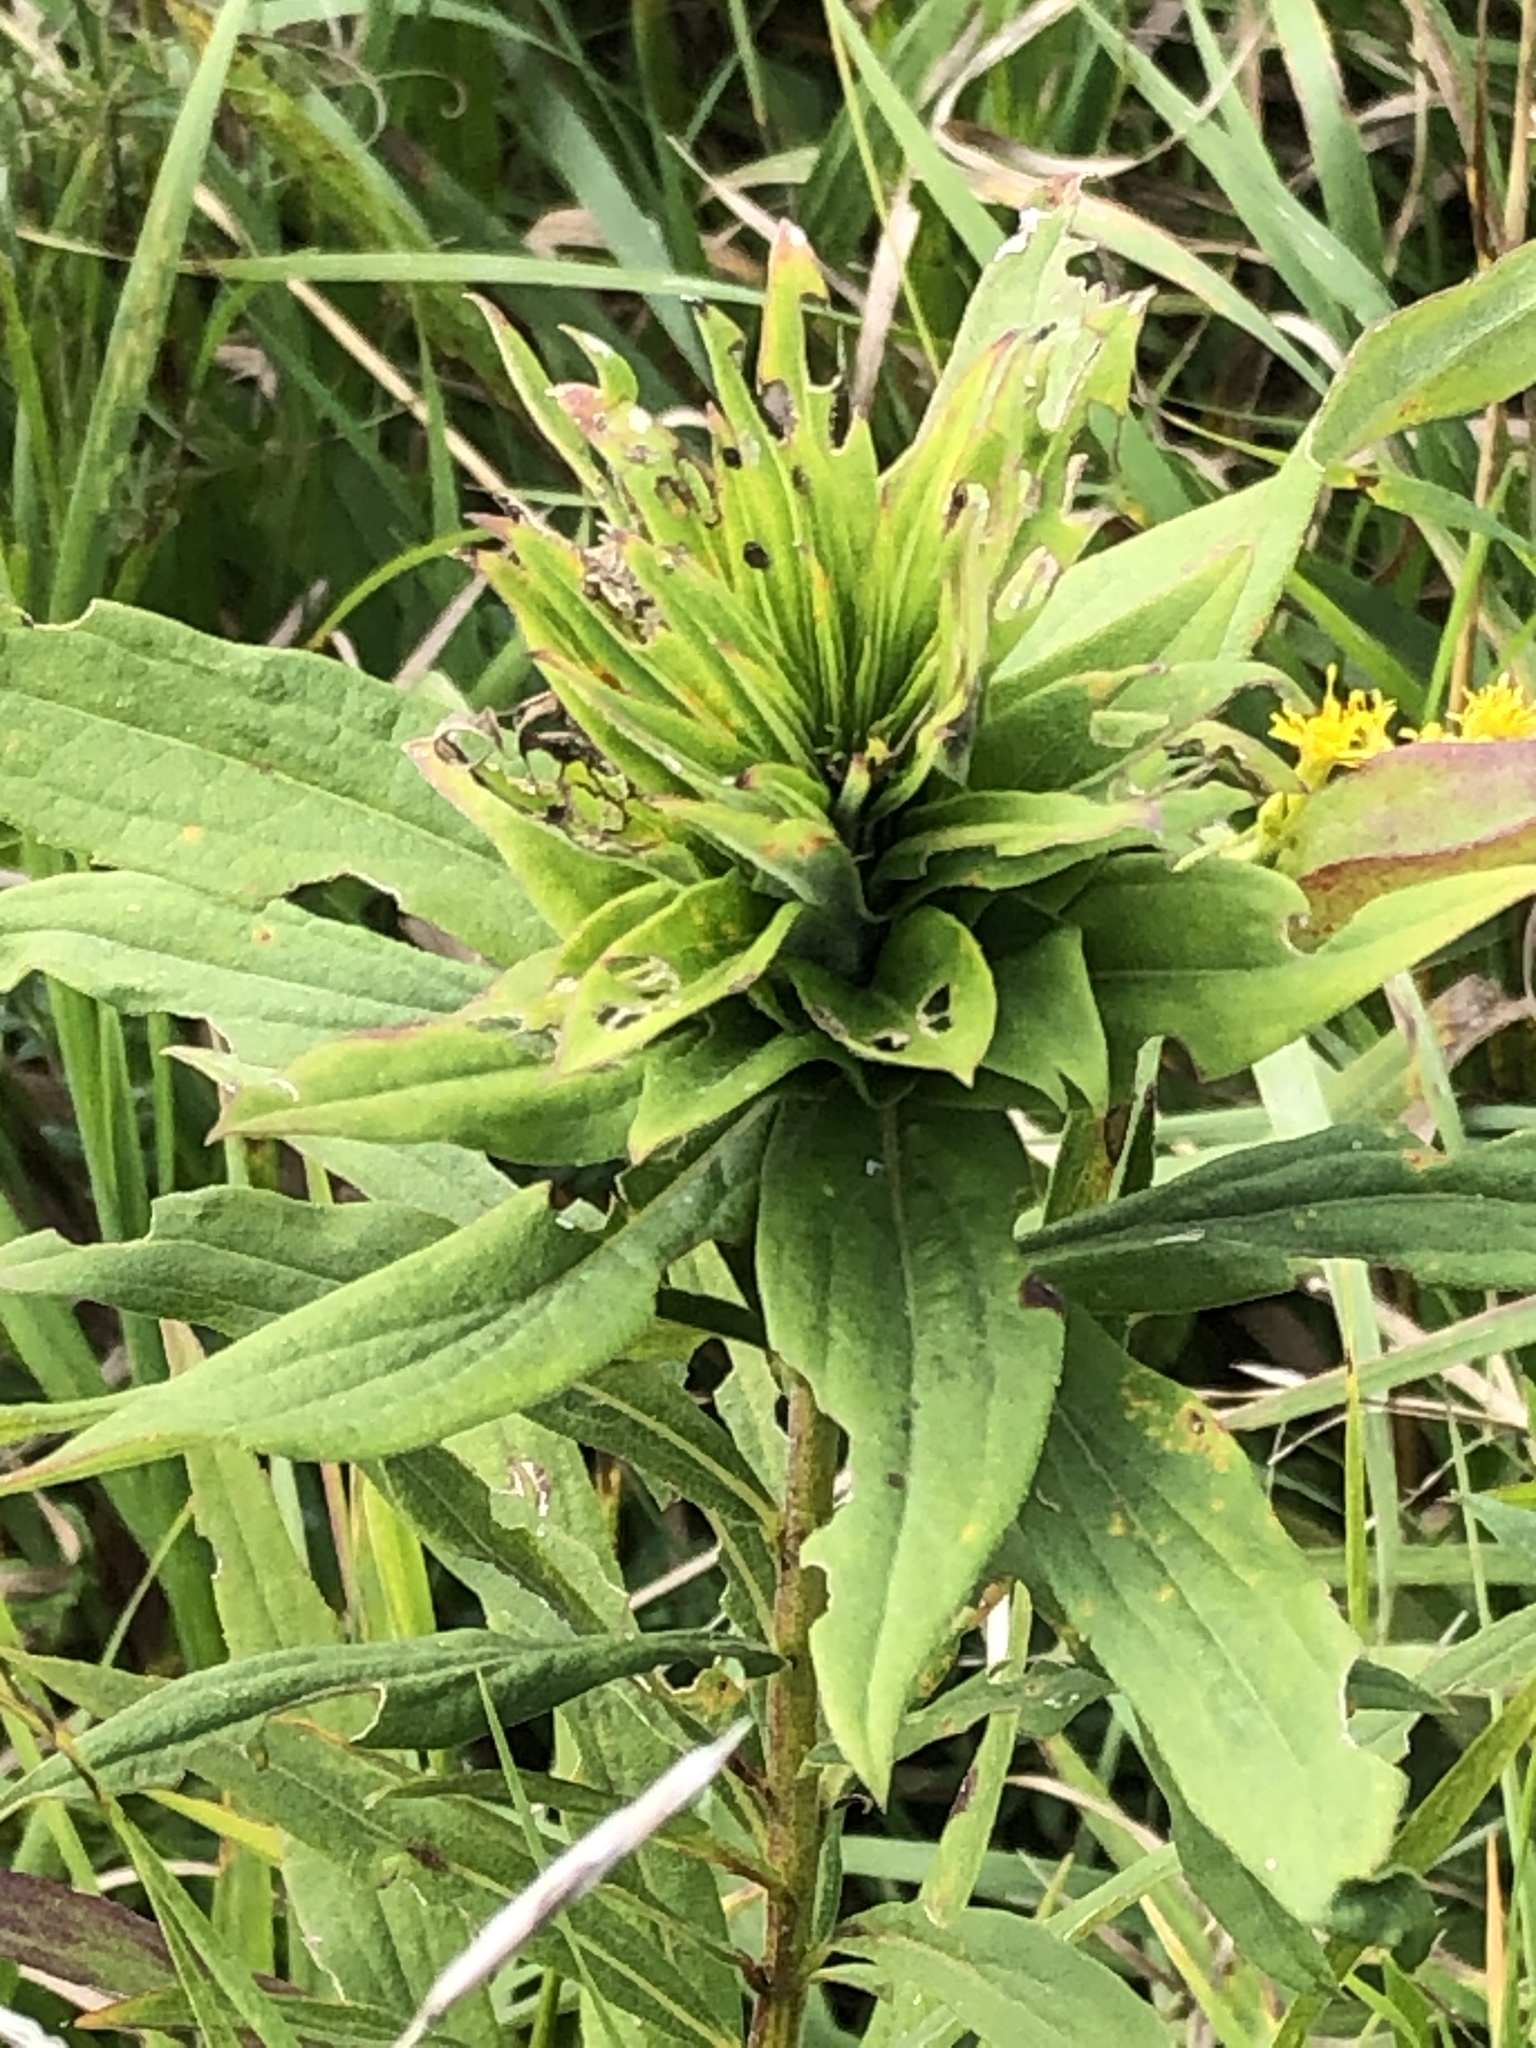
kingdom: Animalia
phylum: Arthropoda
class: Insecta
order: Diptera
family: Cecidomyiidae
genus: Rhopalomyia
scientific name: Rhopalomyia solidaginis
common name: Goldenrod bunch gall midge
